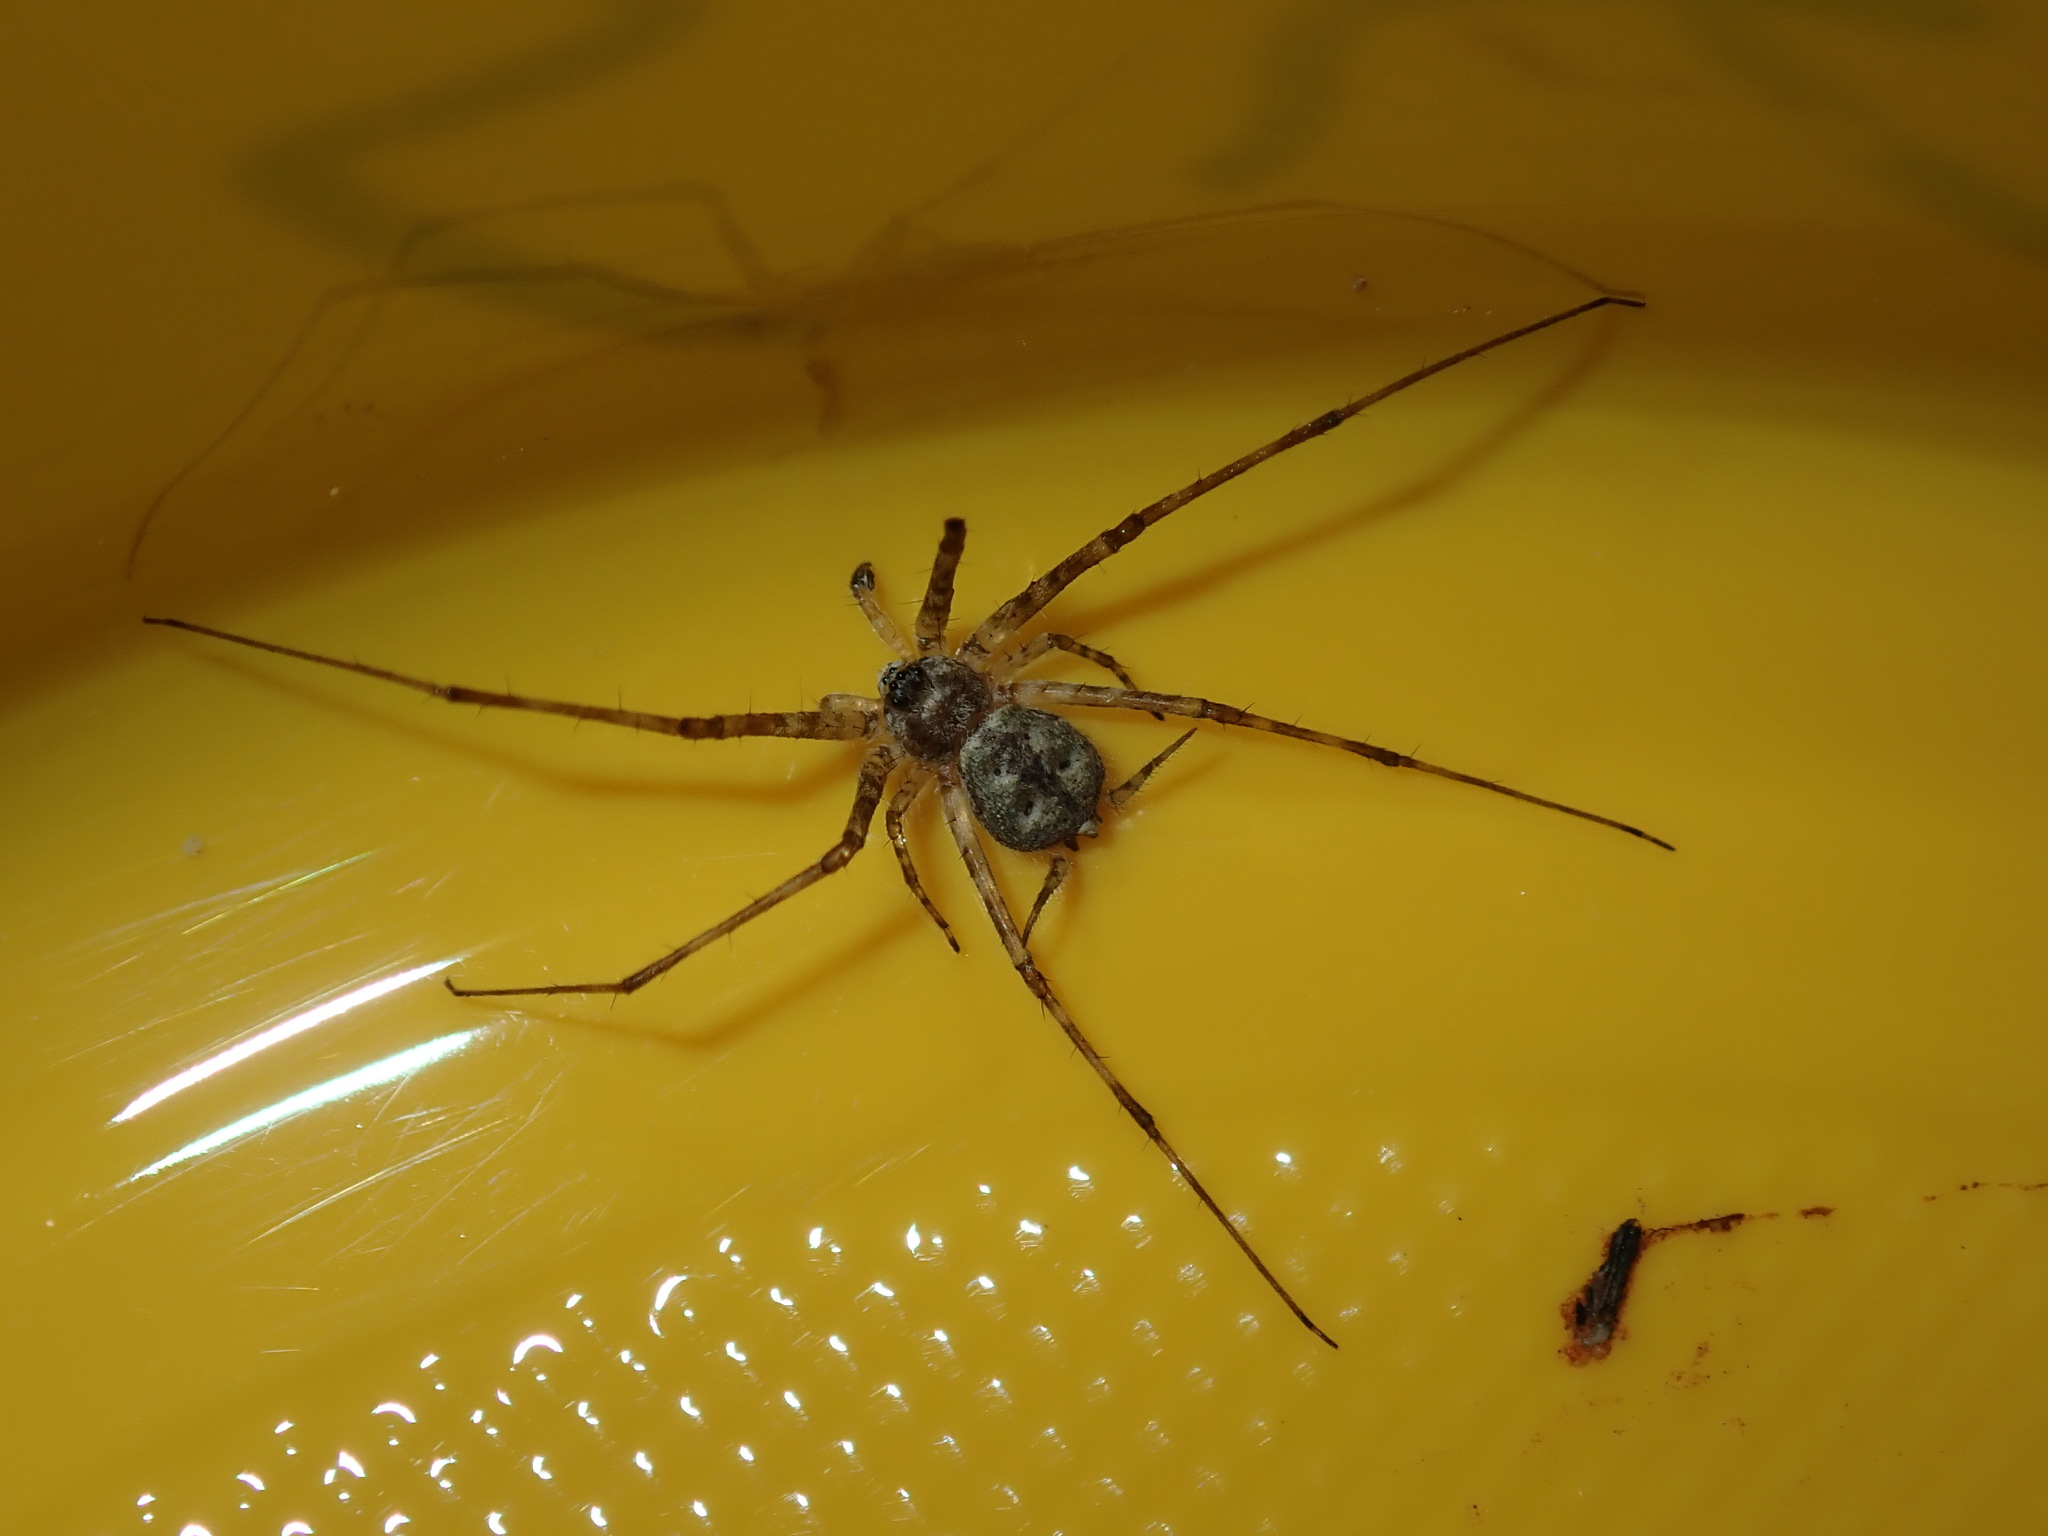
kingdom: Animalia
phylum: Arthropoda
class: Arachnida
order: Araneae
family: Hersiliidae
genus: Tamopsis
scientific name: Tamopsis eucalypti
